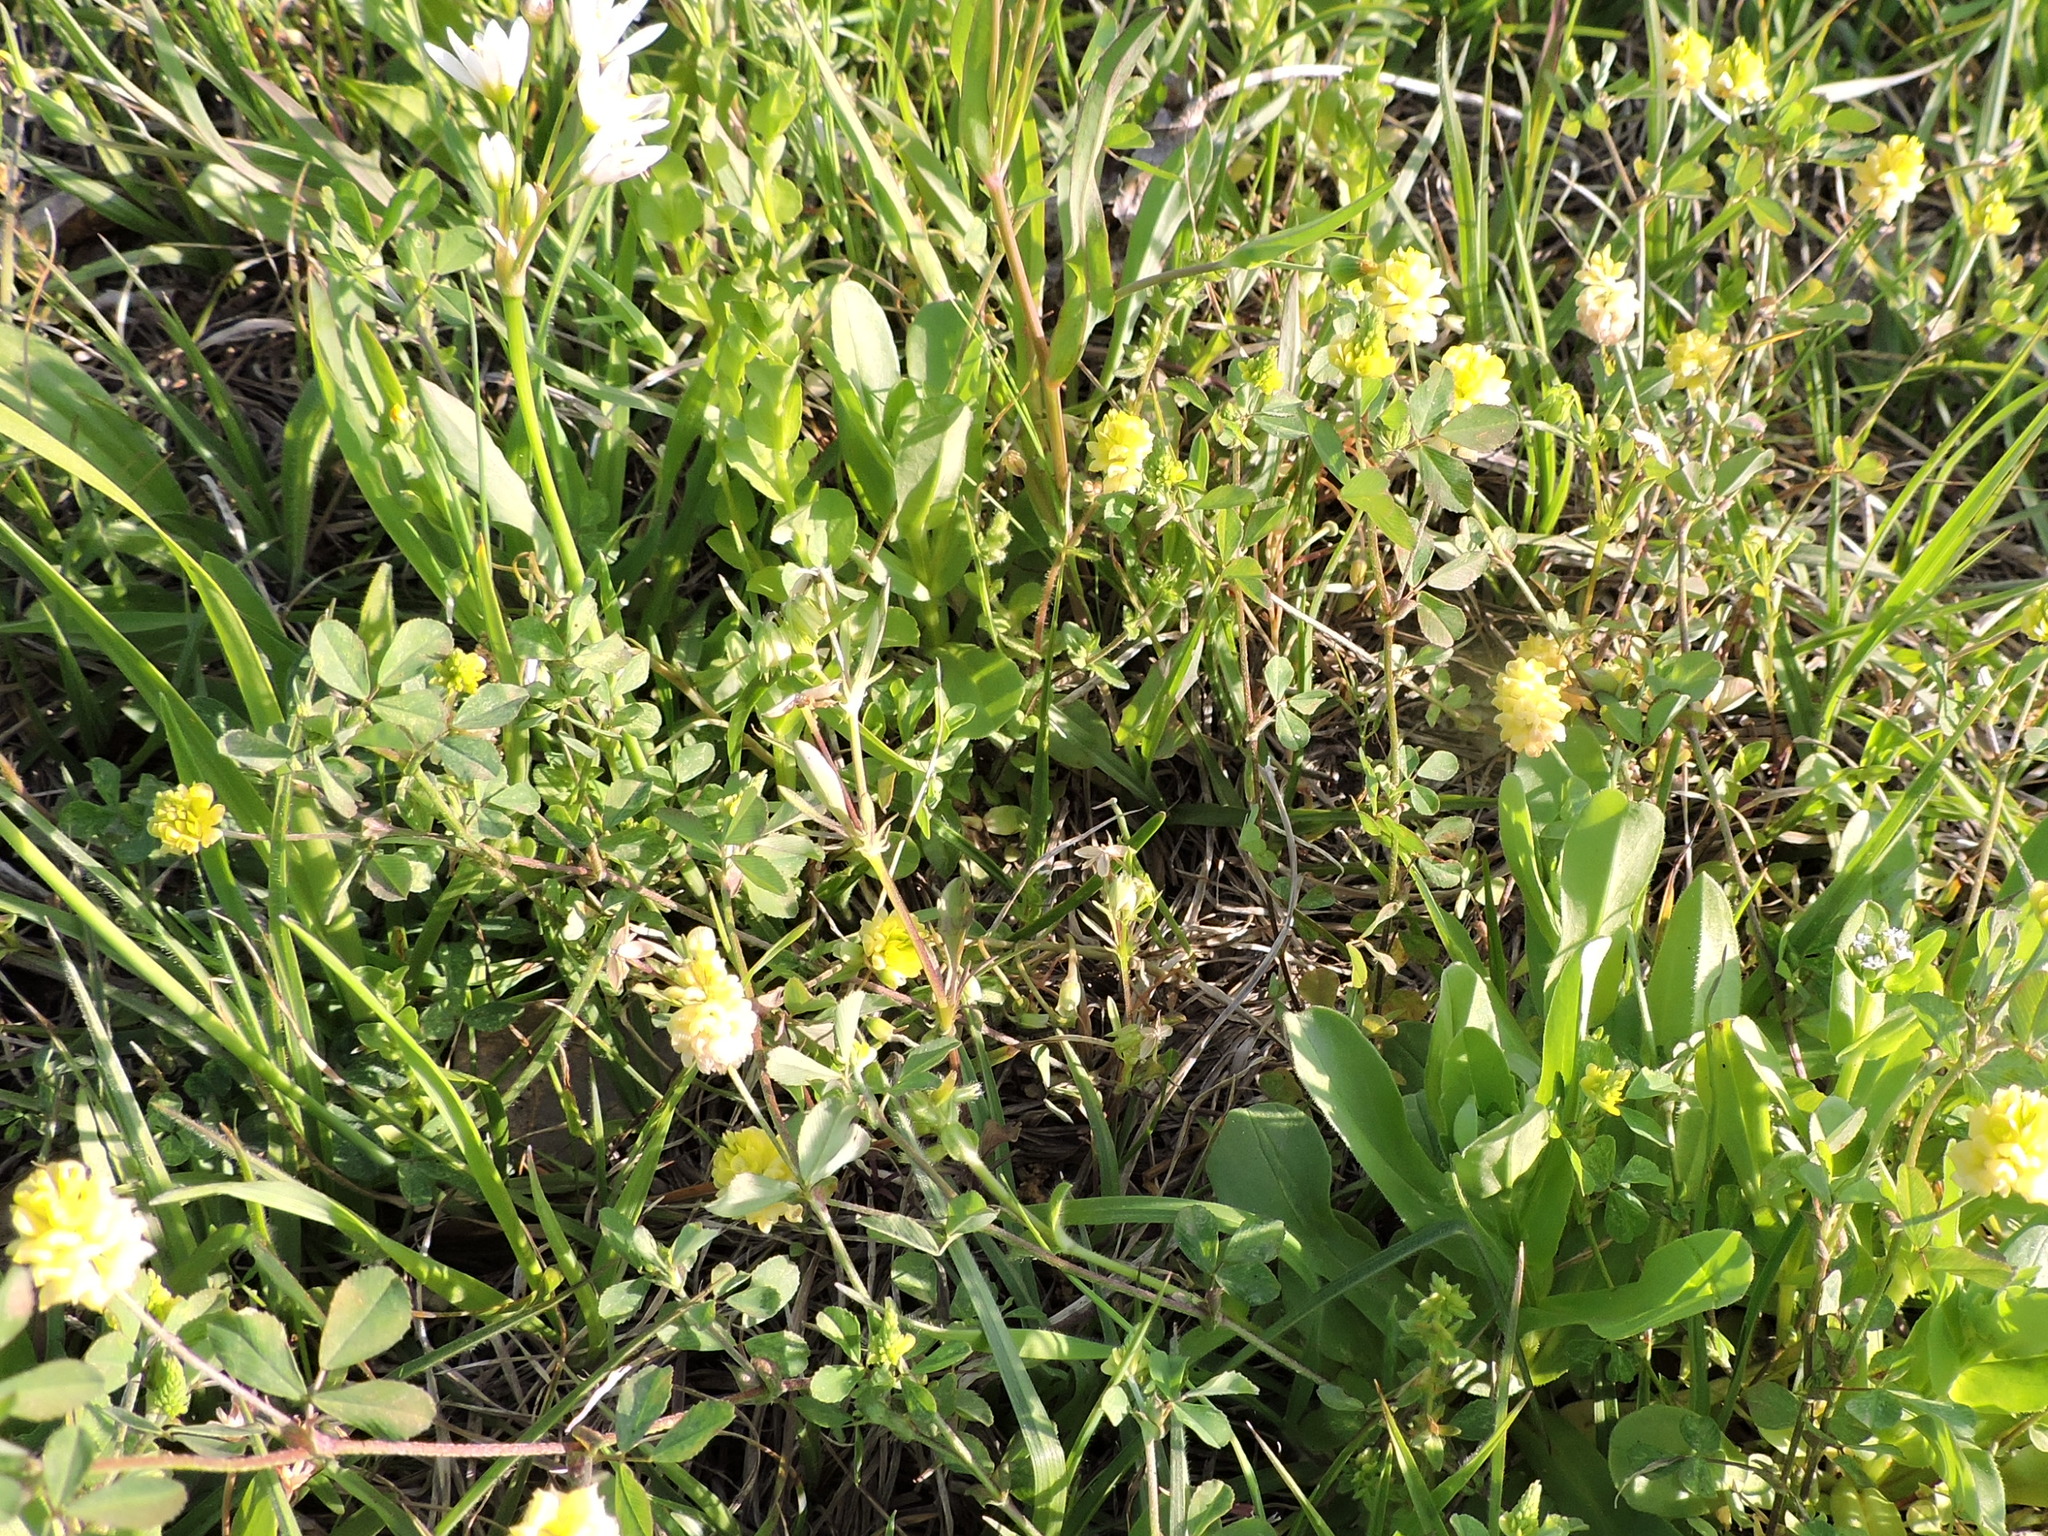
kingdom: Plantae
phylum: Tracheophyta
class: Magnoliopsida
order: Fabales
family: Fabaceae
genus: Trifolium
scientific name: Trifolium campestre
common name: Field clover
